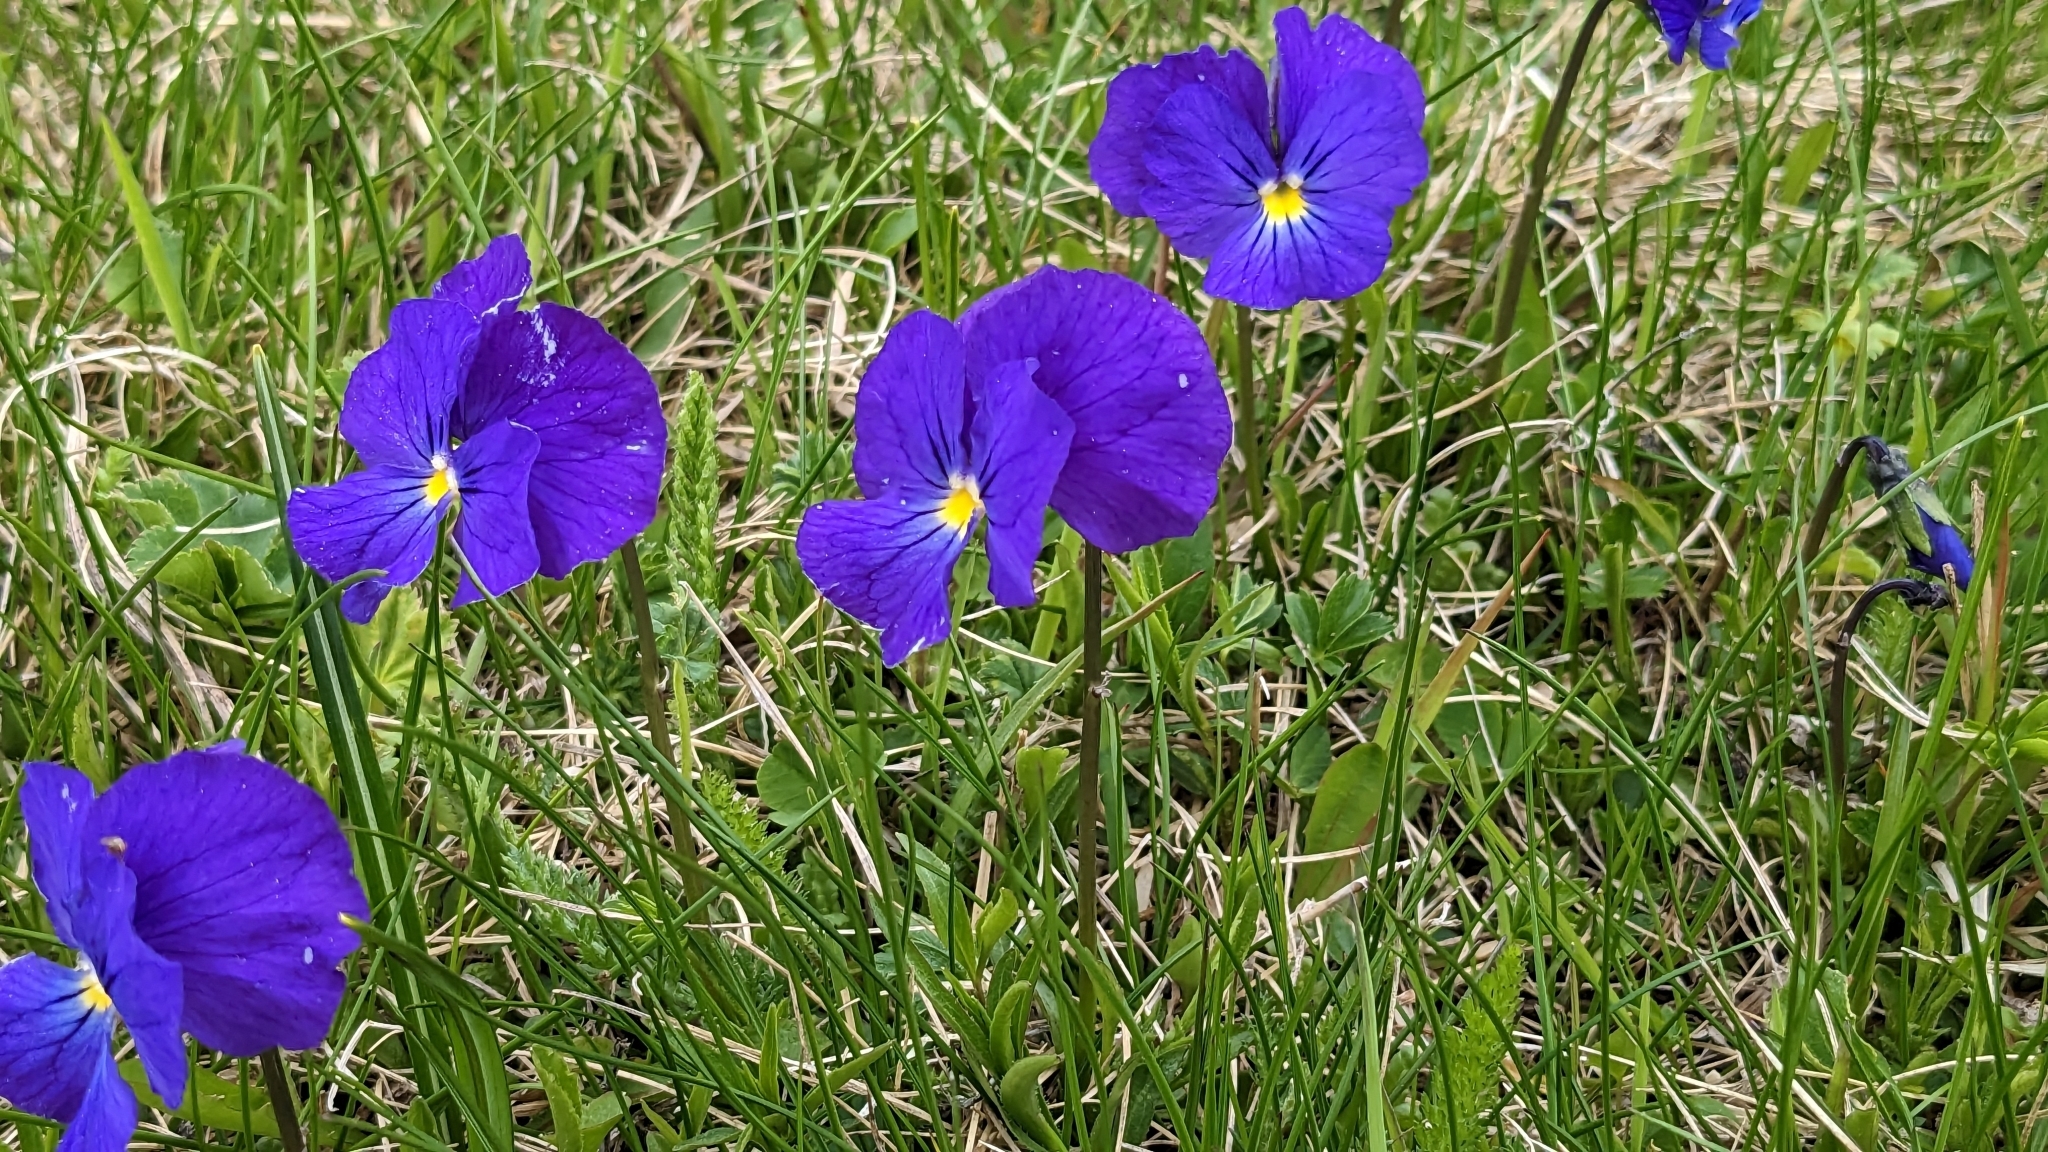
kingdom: Plantae
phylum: Tracheophyta
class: Magnoliopsida
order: Malpighiales
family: Violaceae
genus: Viola
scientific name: Viola calcarata
